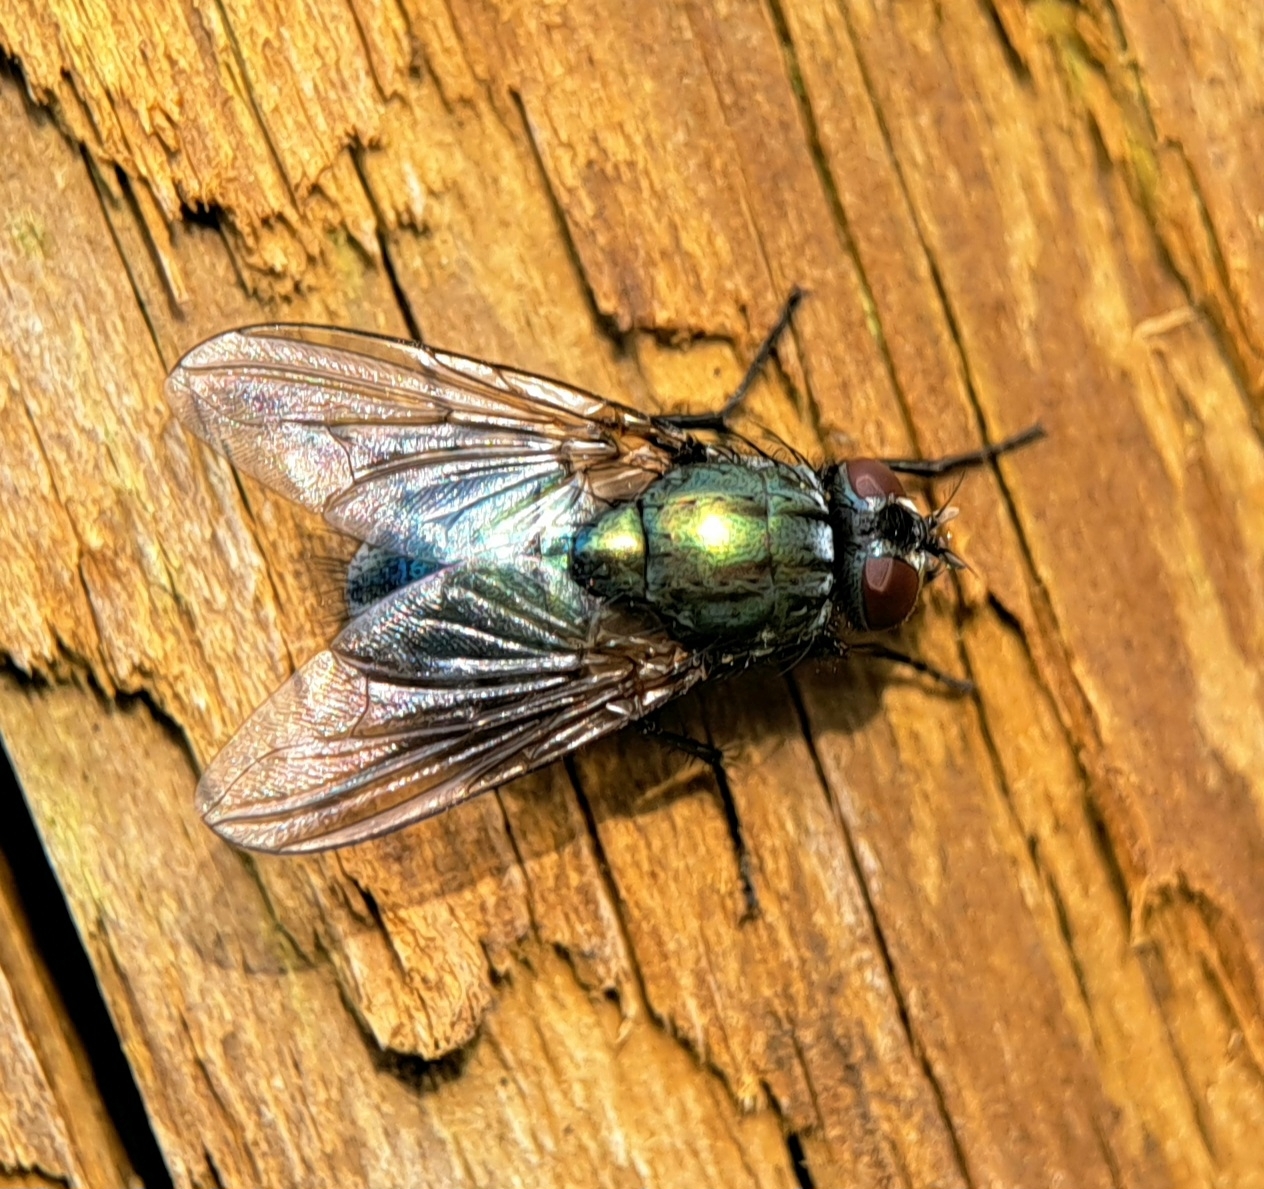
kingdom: Animalia
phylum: Arthropoda
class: Insecta
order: Diptera
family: Muscidae
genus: Dasyphora
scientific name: Dasyphora cyanella
